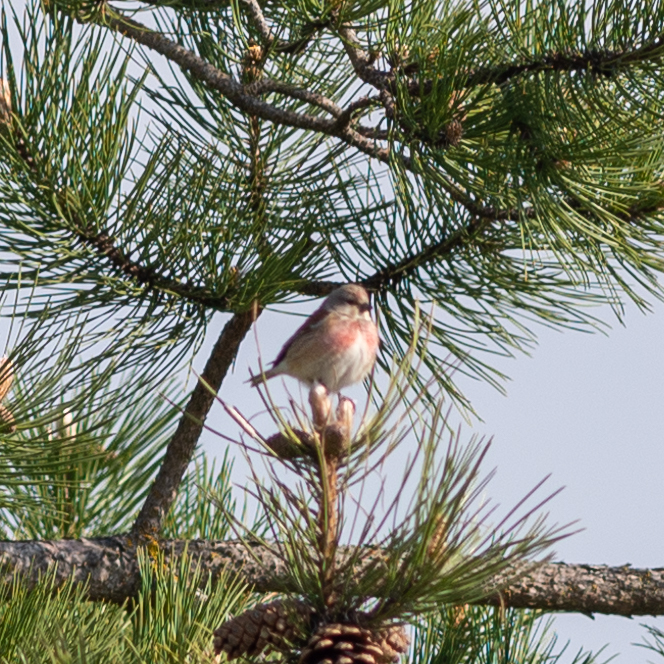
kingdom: Animalia
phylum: Chordata
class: Aves
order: Passeriformes
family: Fringillidae
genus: Linaria
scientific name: Linaria cannabina
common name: Common linnet
